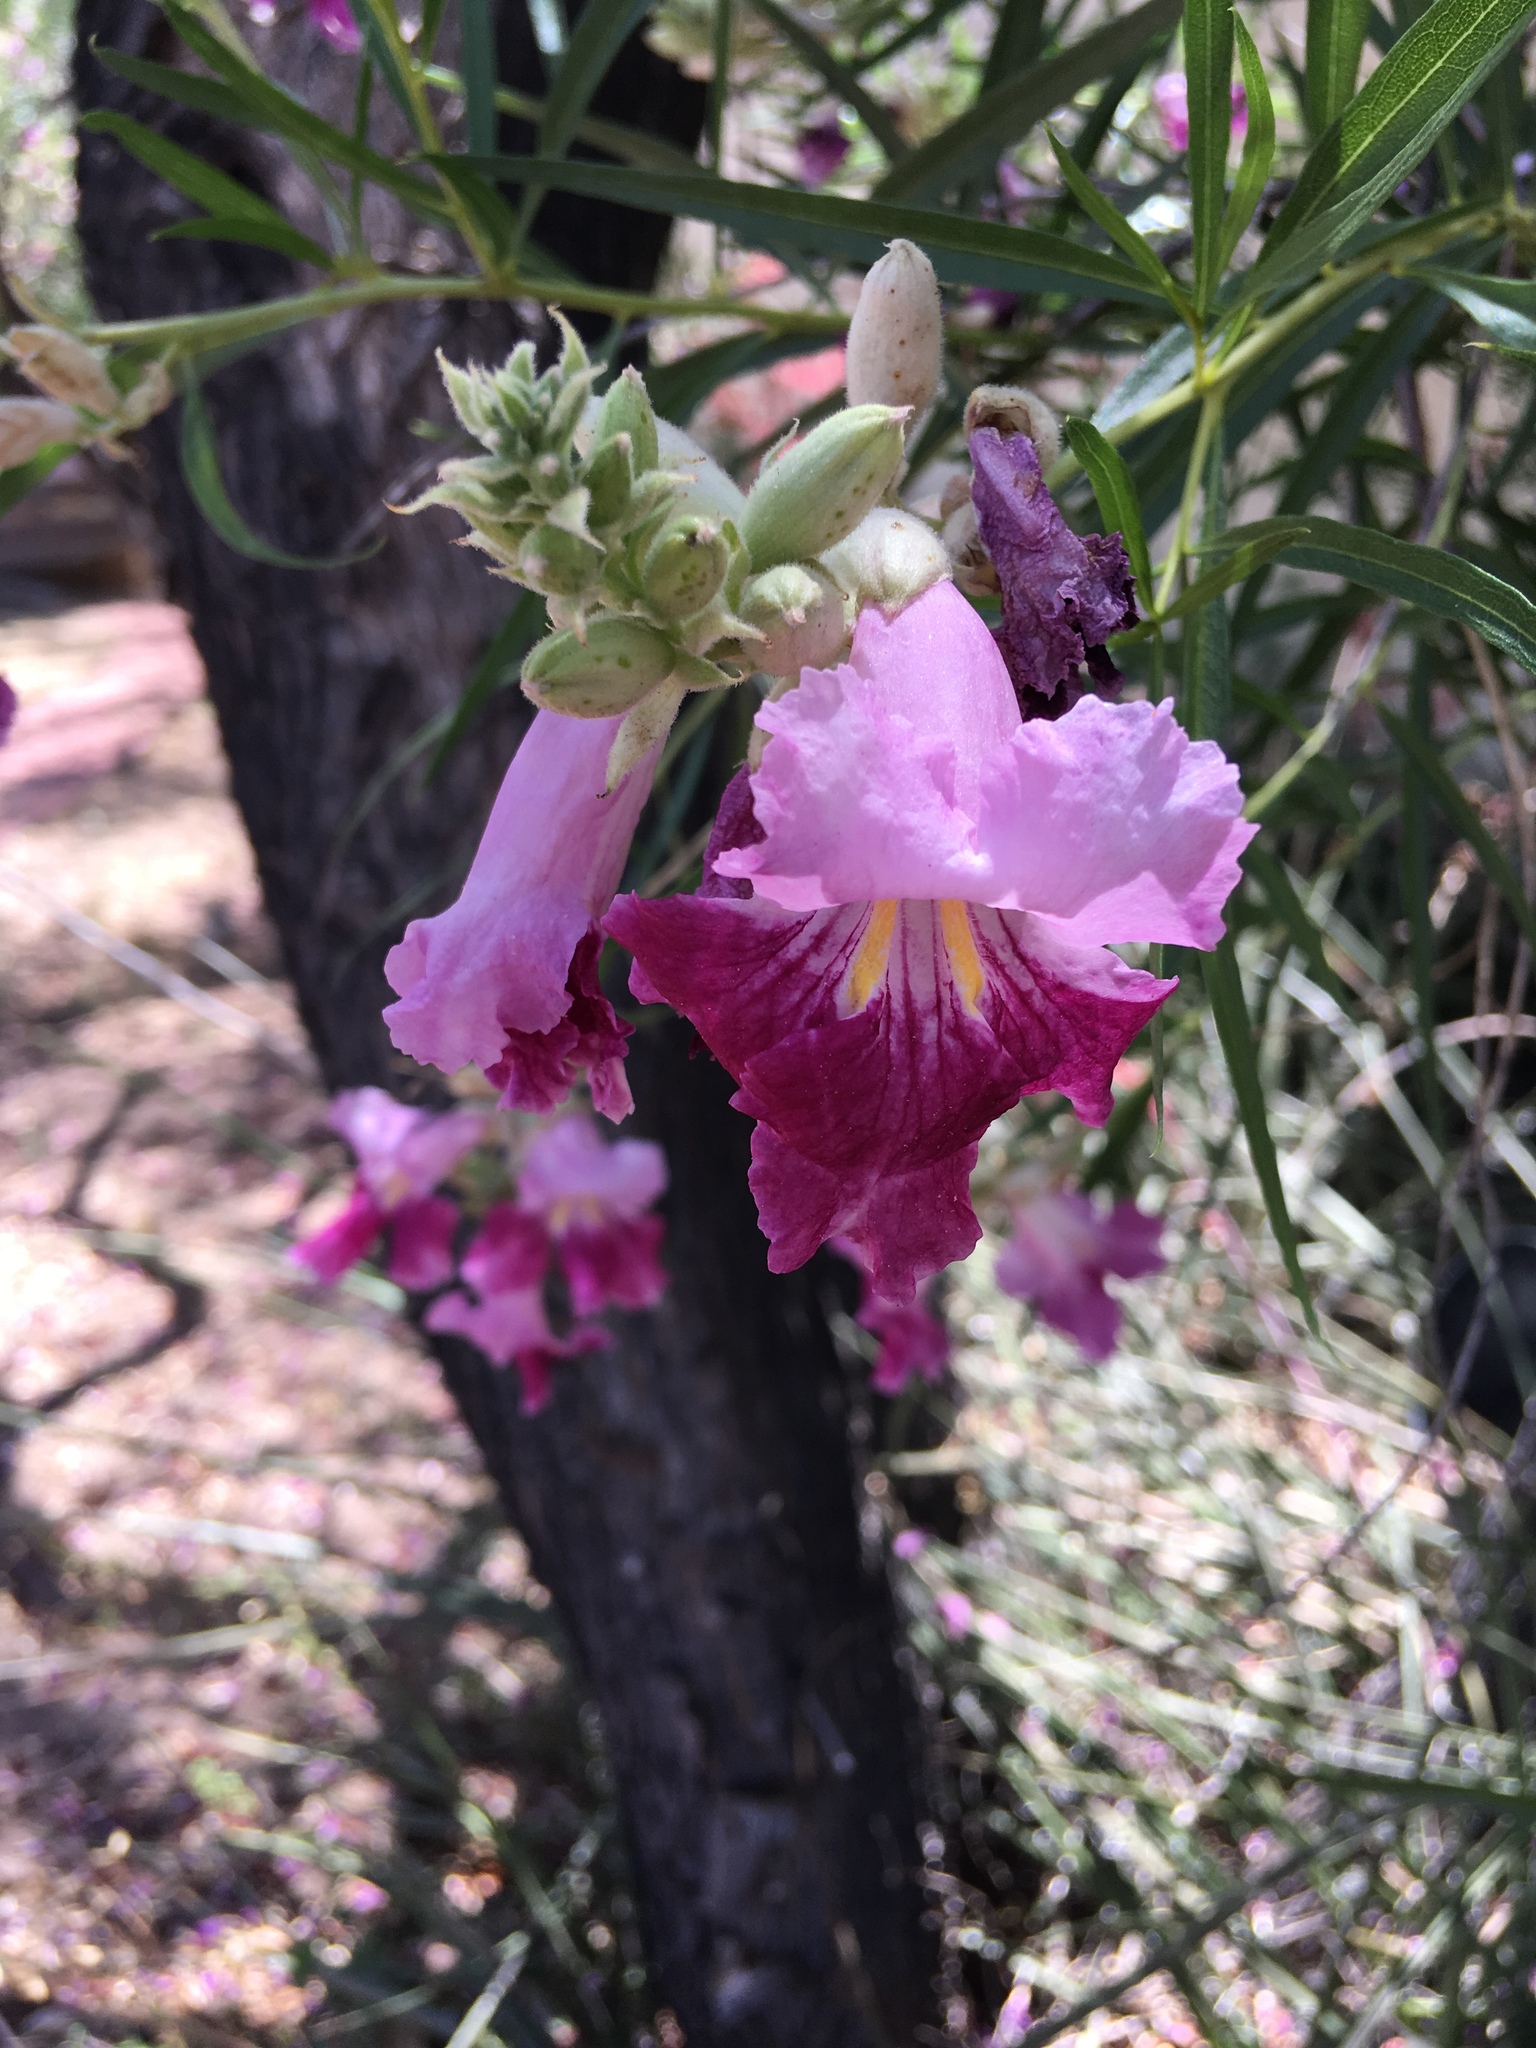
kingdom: Plantae
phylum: Tracheophyta
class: Magnoliopsida
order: Lamiales
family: Bignoniaceae
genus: Chilopsis
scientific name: Chilopsis linearis
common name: Desert-willow
